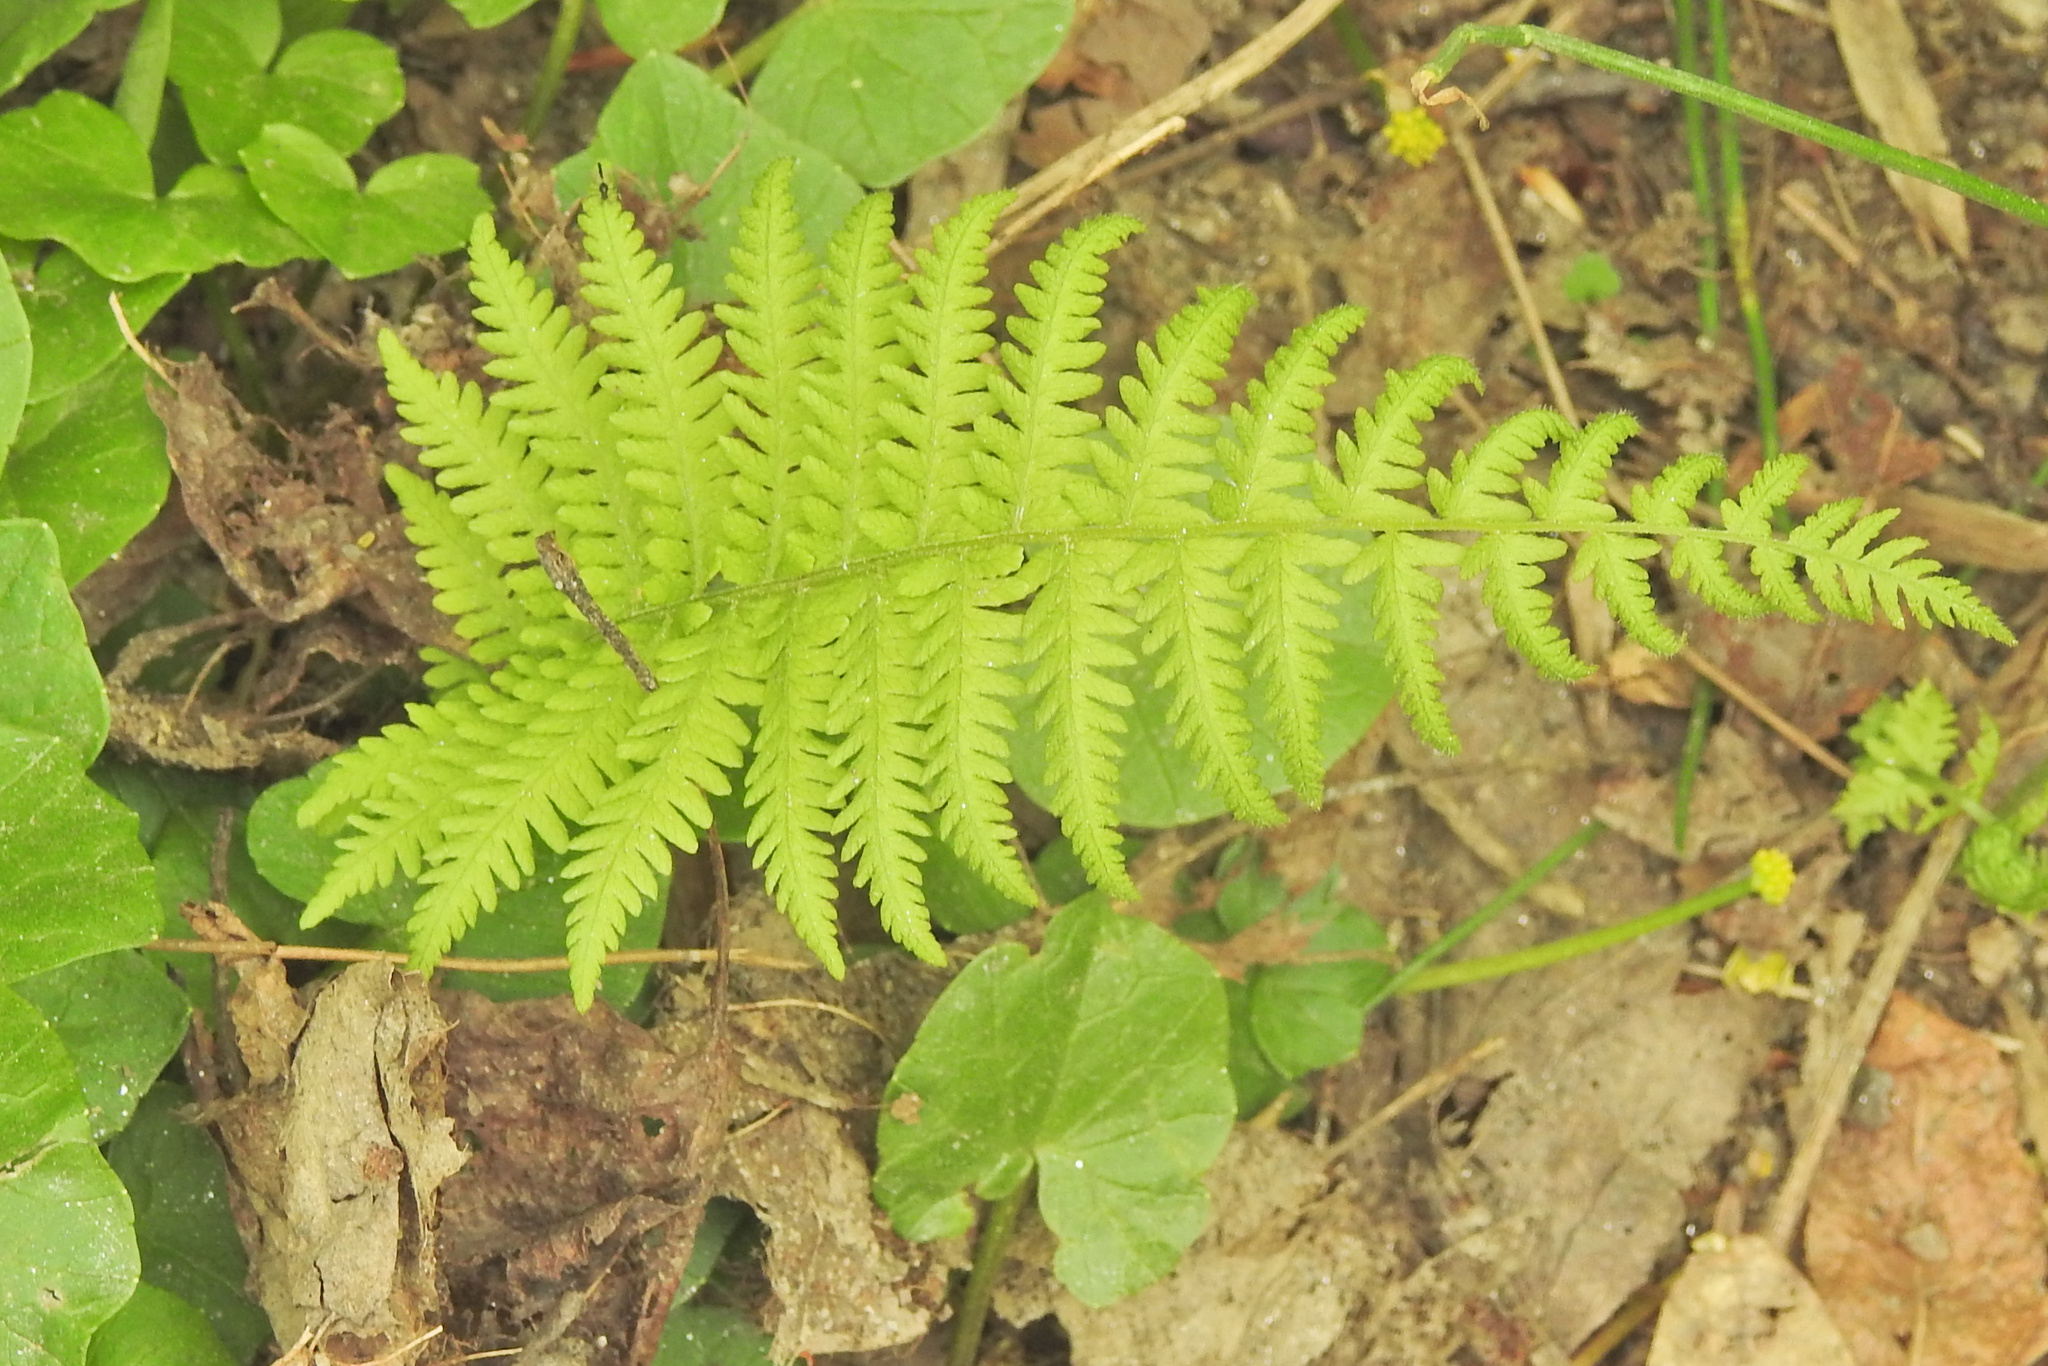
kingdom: Plantae
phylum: Tracheophyta
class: Polypodiopsida
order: Polypodiales
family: Thelypteridaceae
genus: Amauropelta
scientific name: Amauropelta noveboracensis
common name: New york fern
